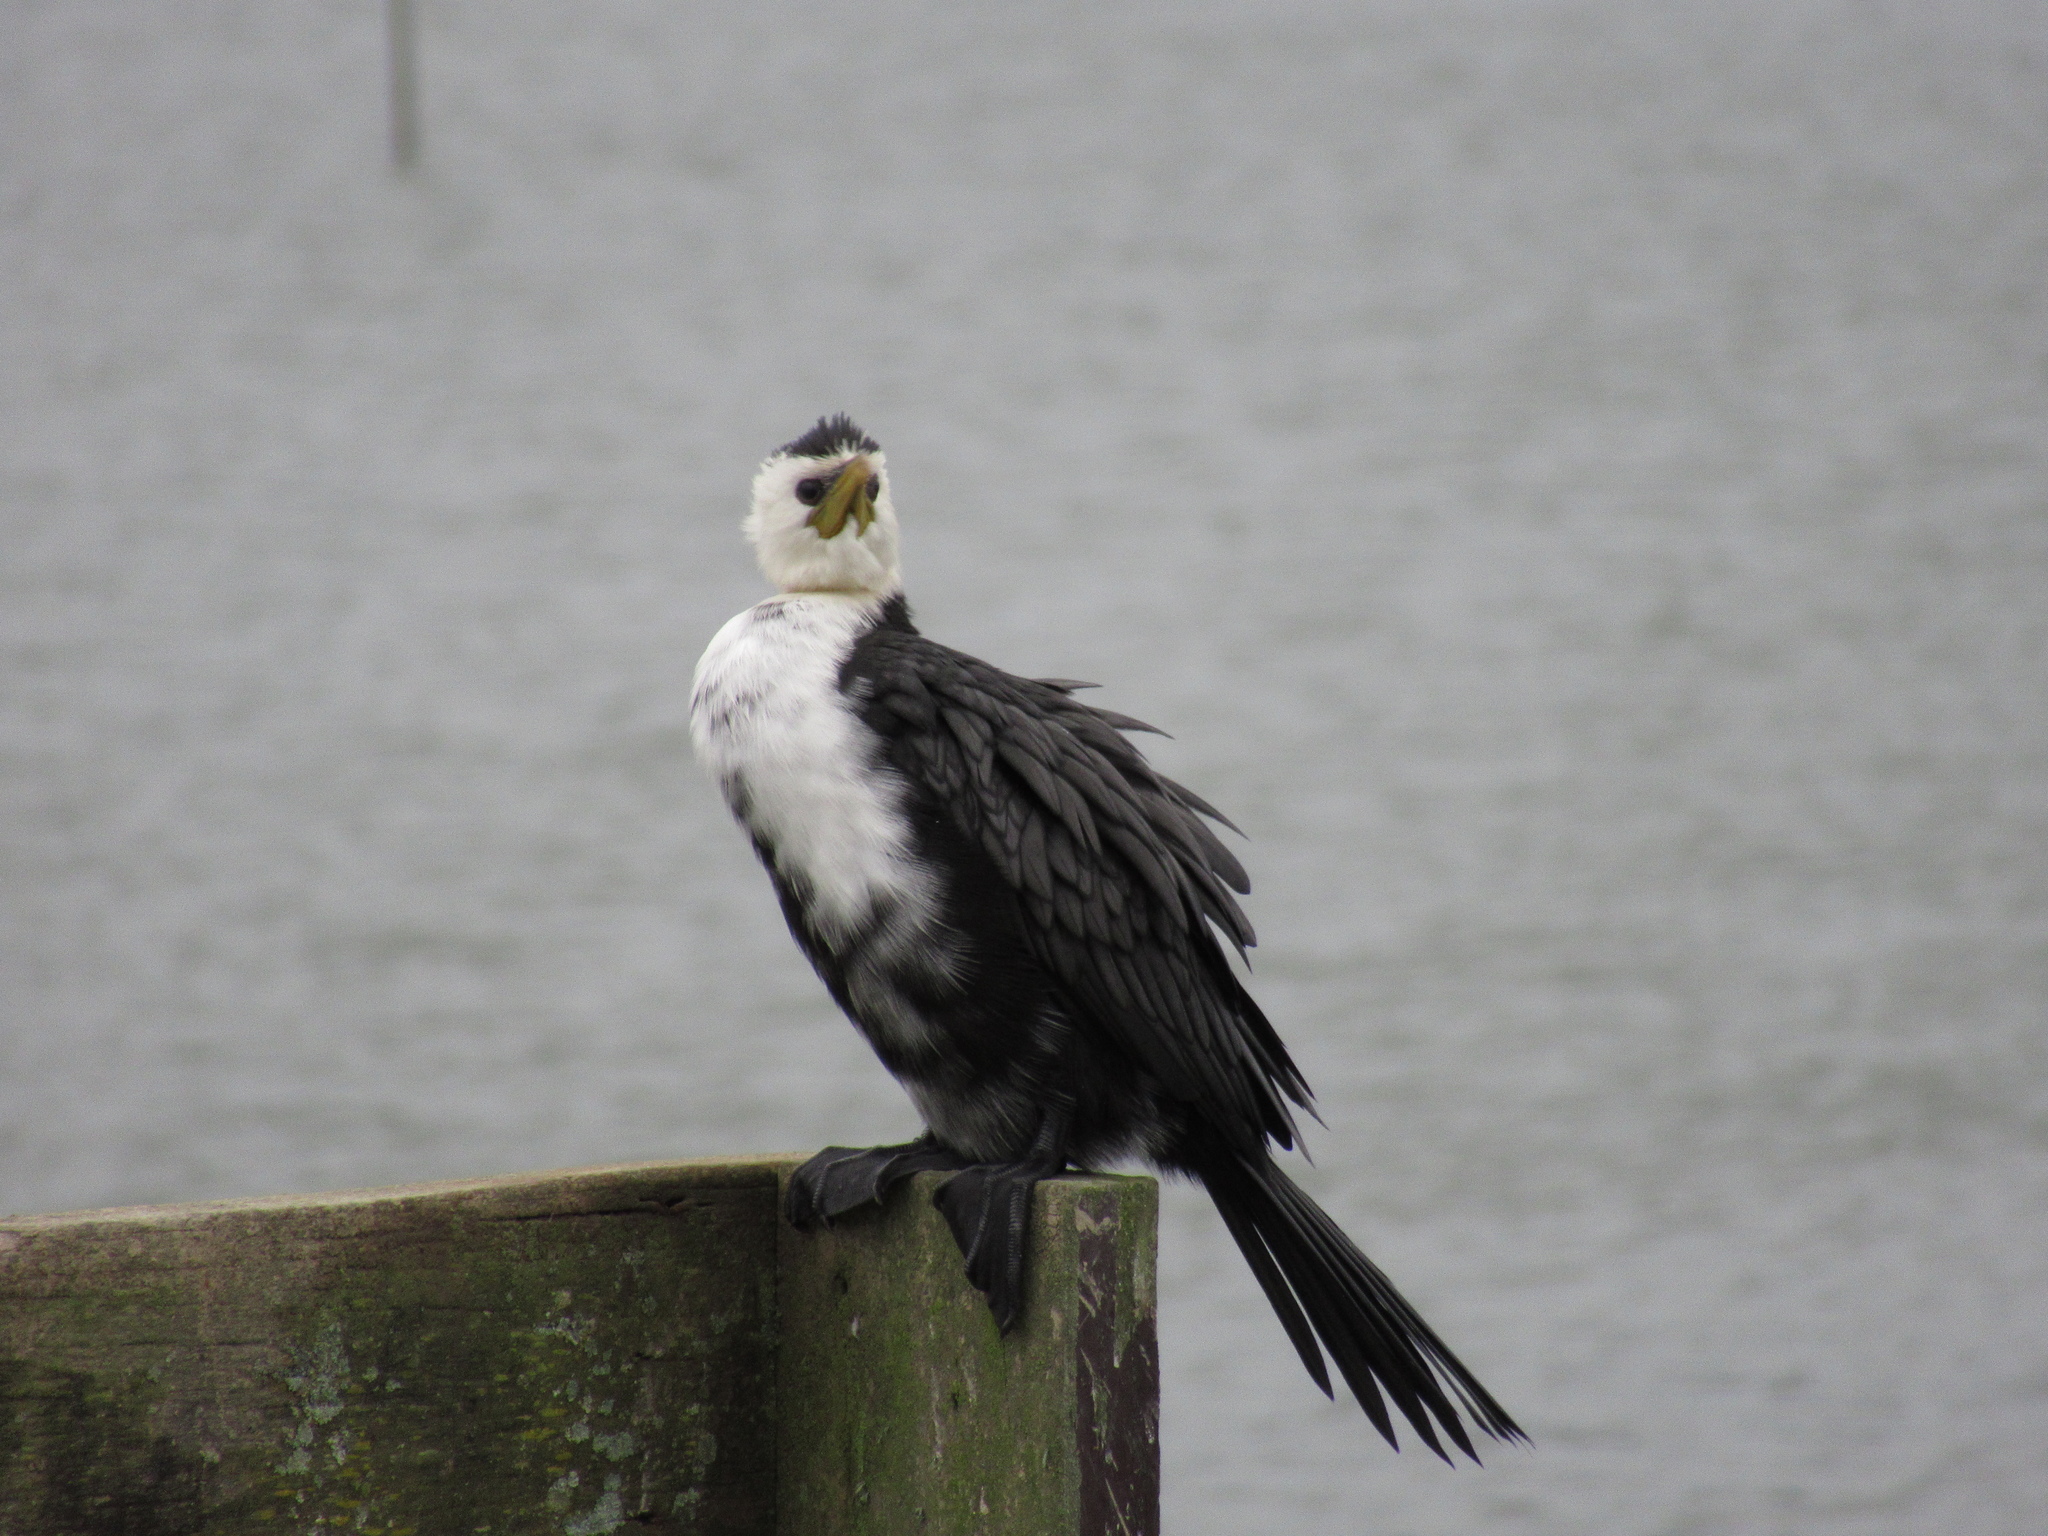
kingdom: Animalia
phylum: Chordata
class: Aves
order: Suliformes
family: Phalacrocoracidae
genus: Microcarbo
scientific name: Microcarbo melanoleucos
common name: Little pied cormorant
